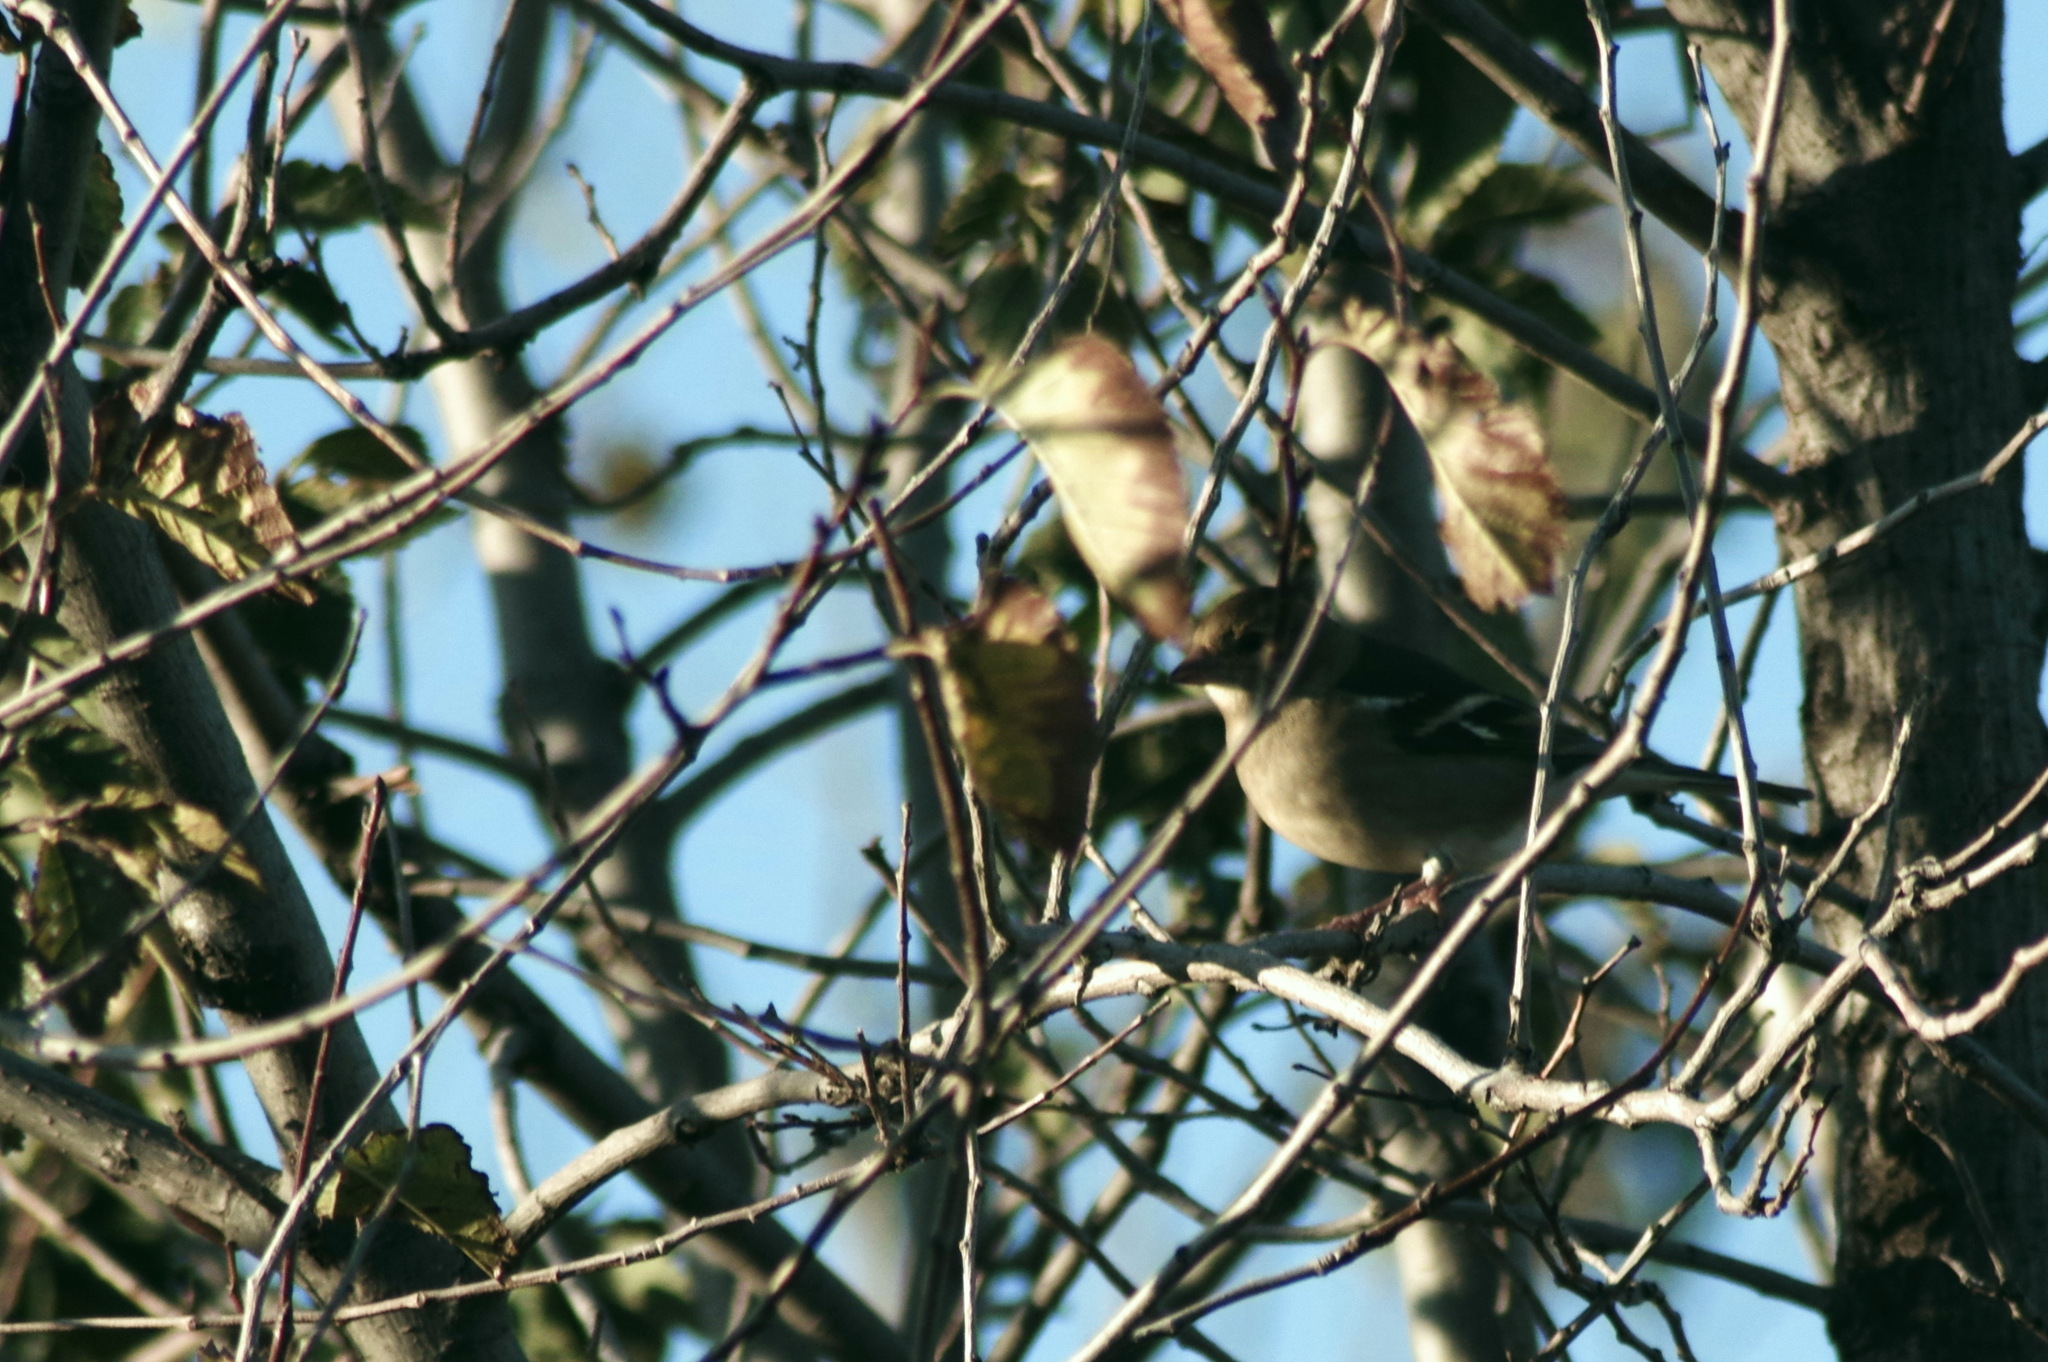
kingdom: Animalia
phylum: Chordata
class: Aves
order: Passeriformes
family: Fringillidae
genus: Fringilla
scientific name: Fringilla coelebs
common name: Common chaffinch
